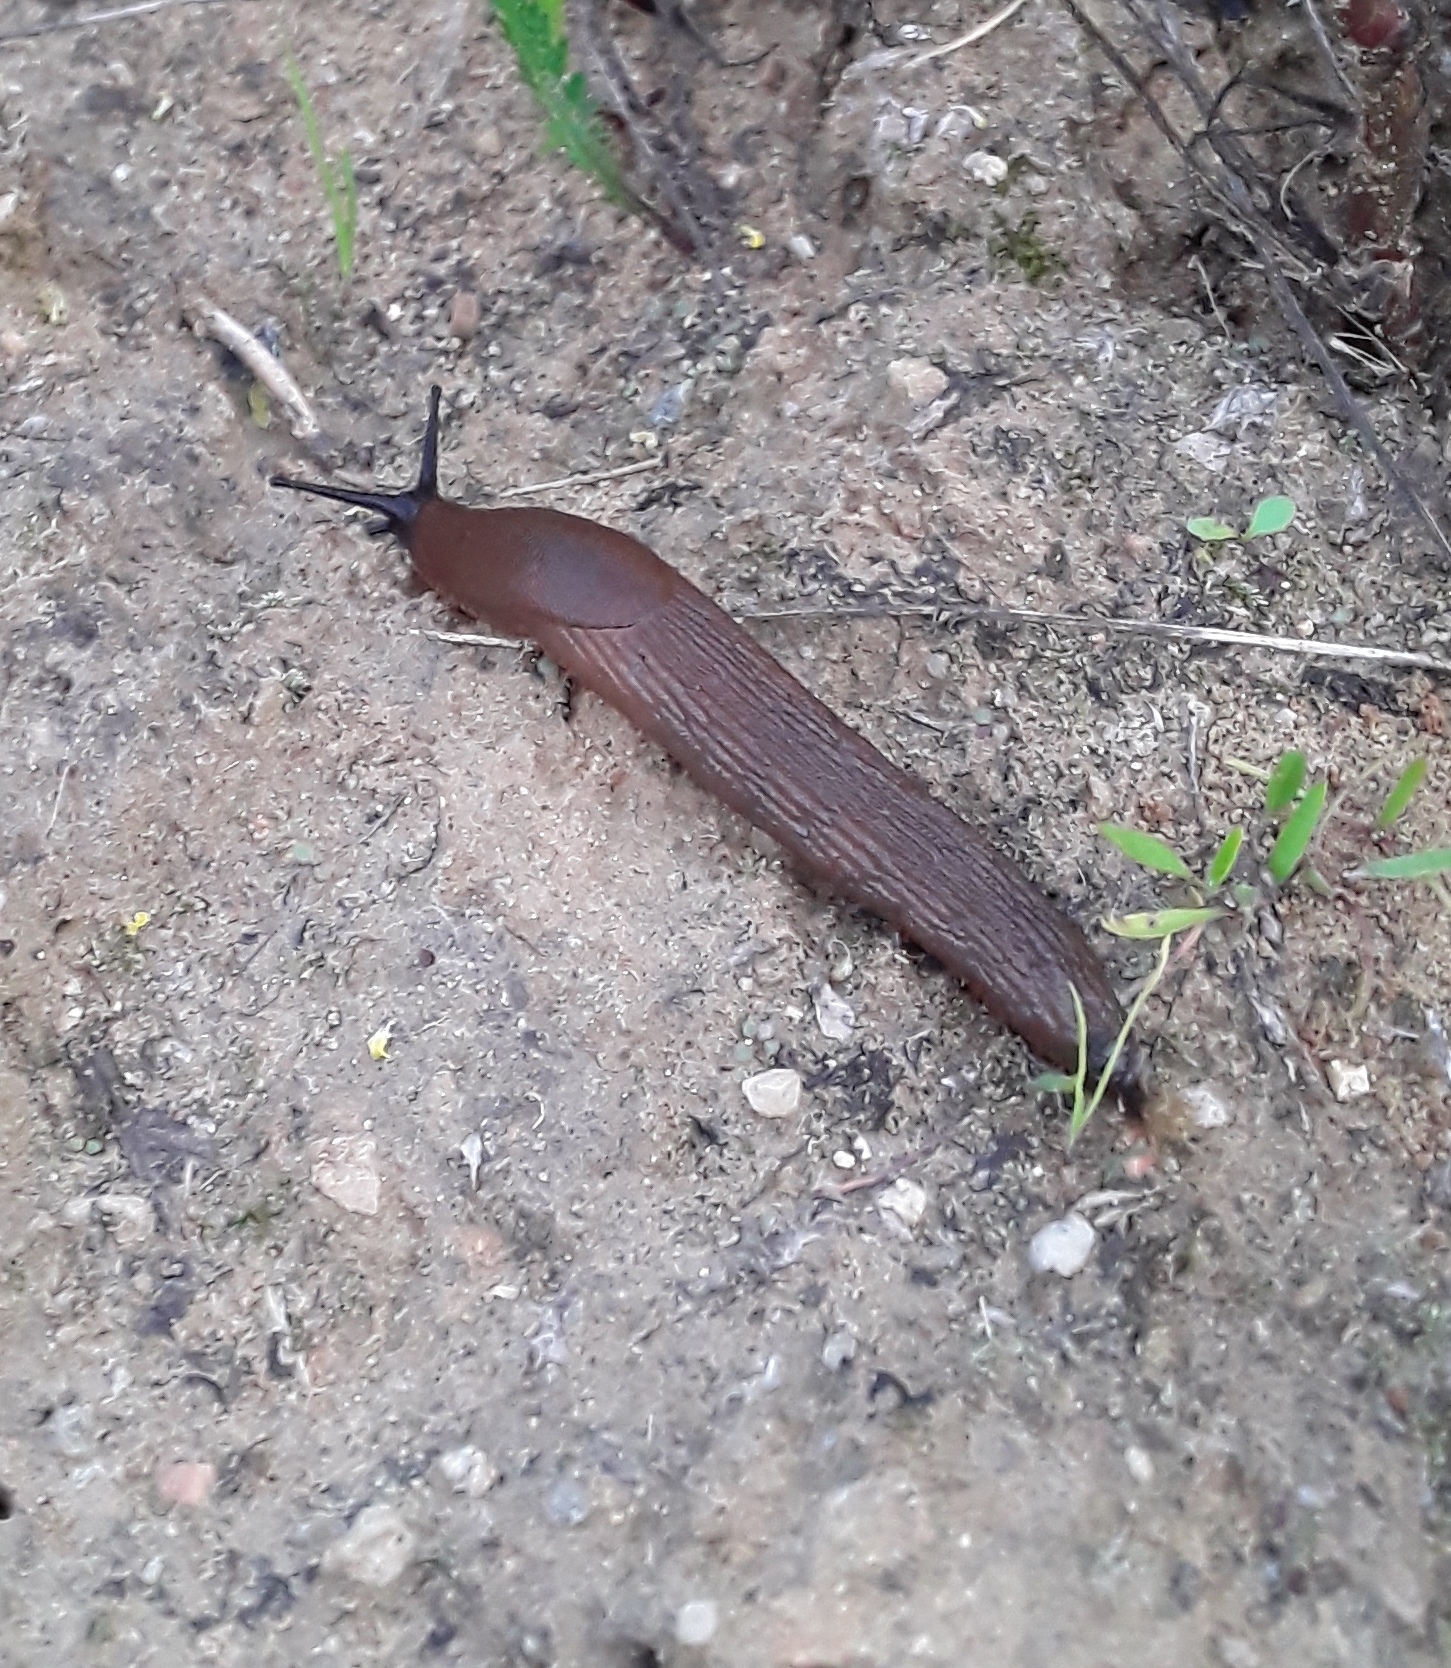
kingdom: Animalia
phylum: Mollusca
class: Gastropoda
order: Stylommatophora
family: Arionidae
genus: Arion
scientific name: Arion
